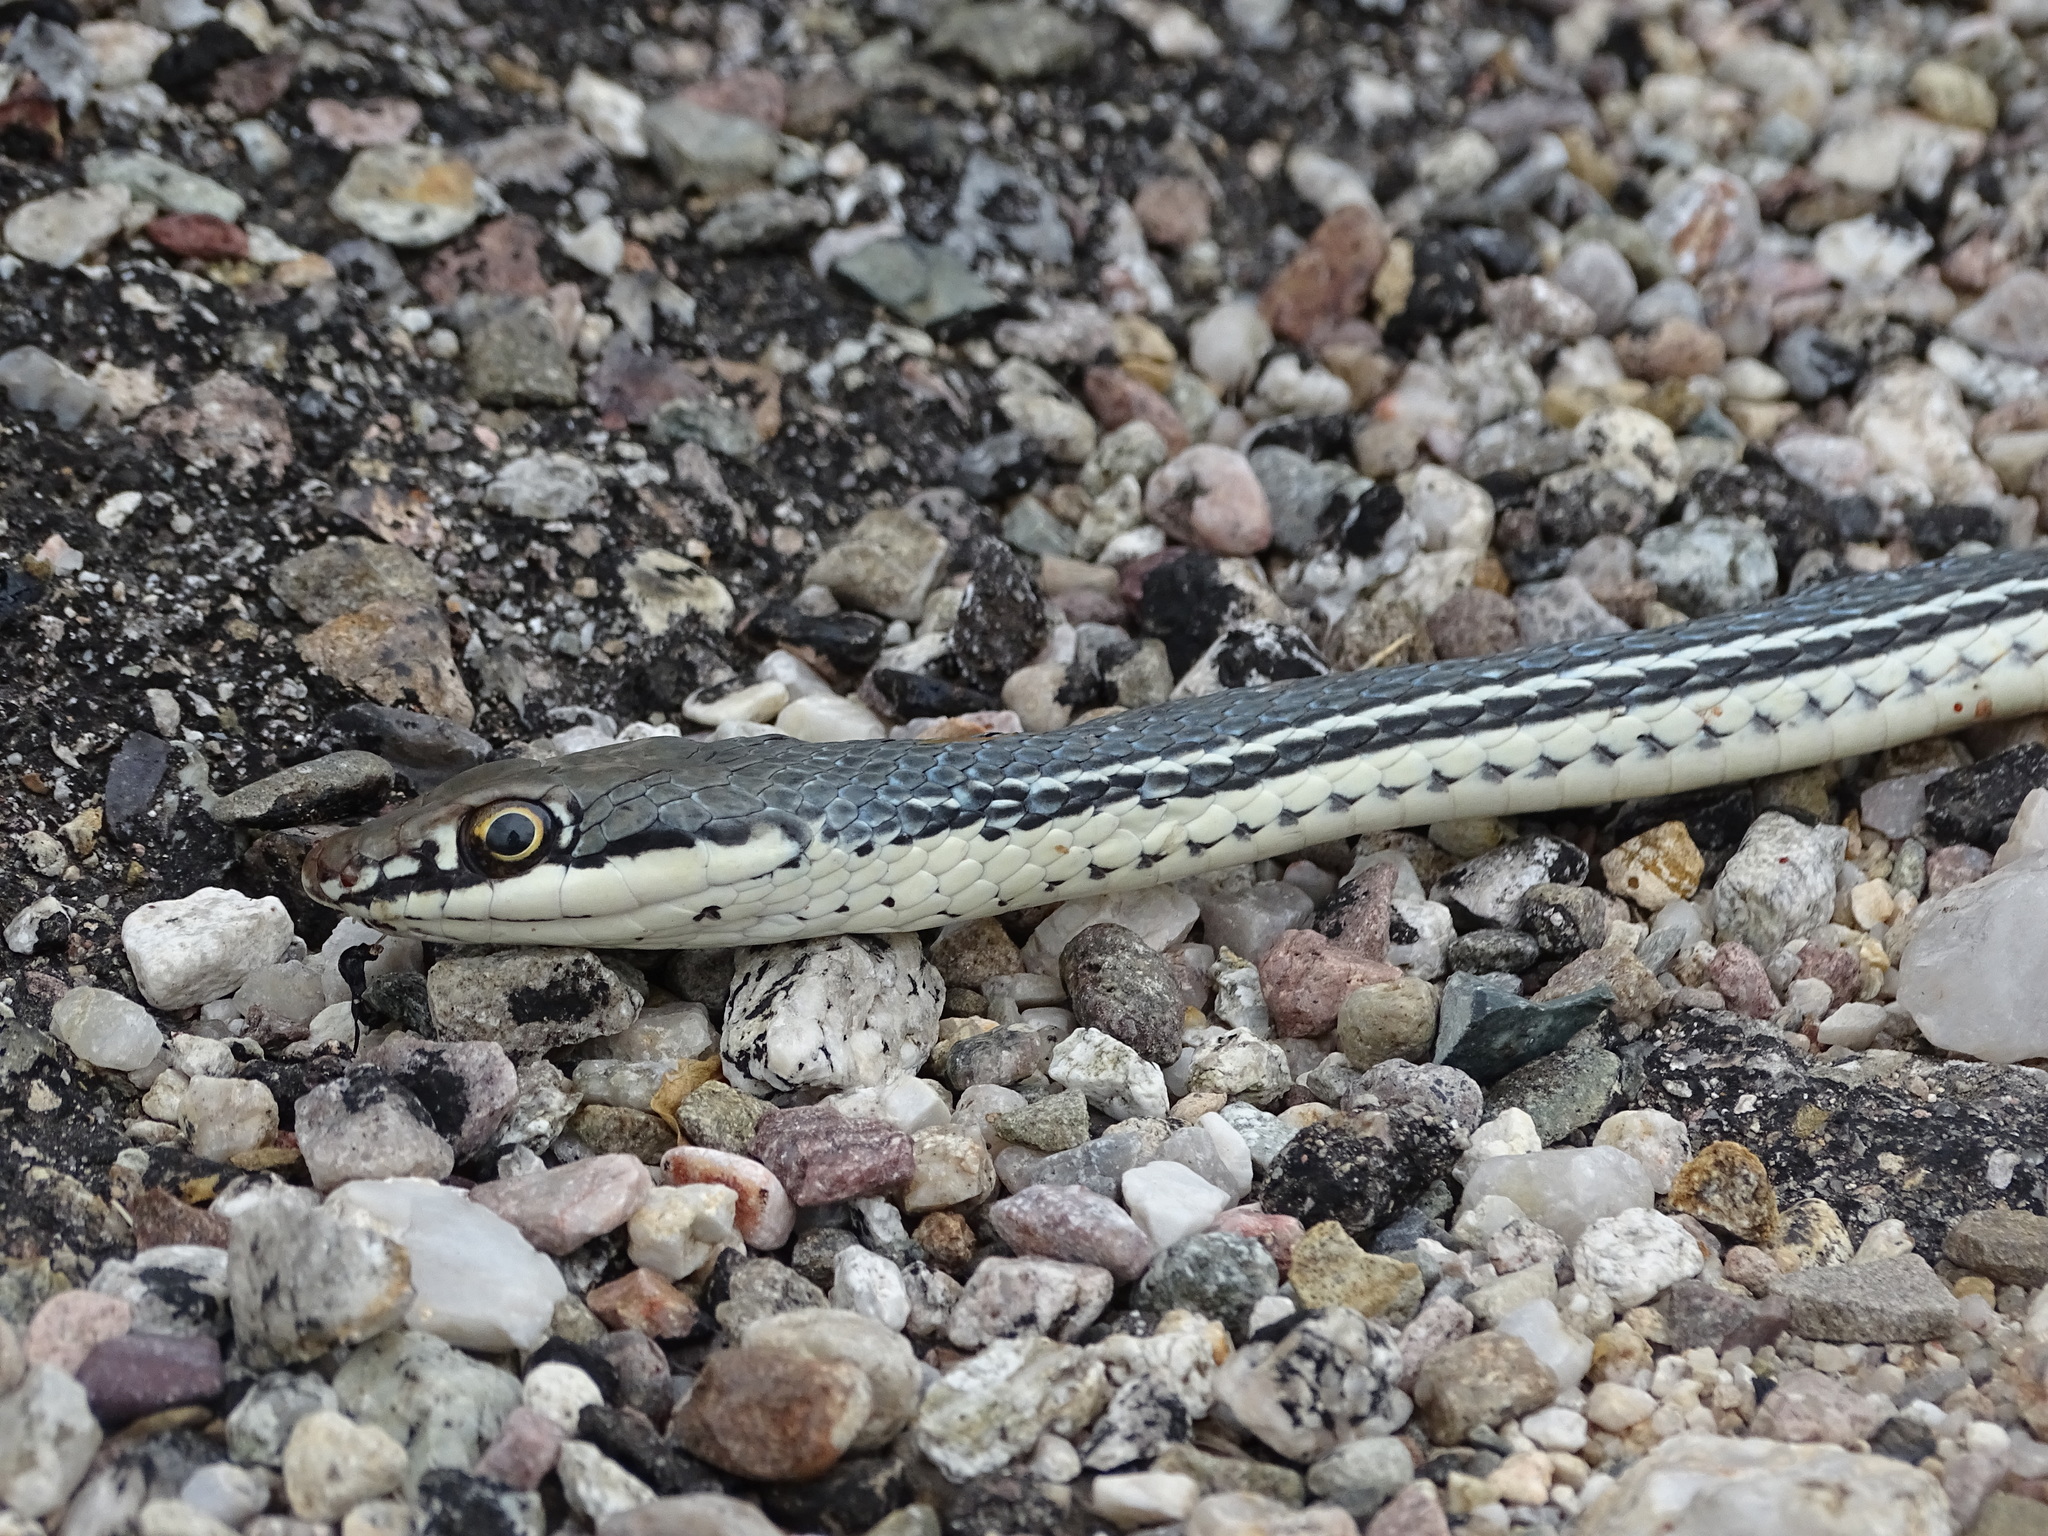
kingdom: Animalia
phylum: Chordata
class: Squamata
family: Colubridae
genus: Masticophis
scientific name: Masticophis bilineatus
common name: Sonoran whipsnake
